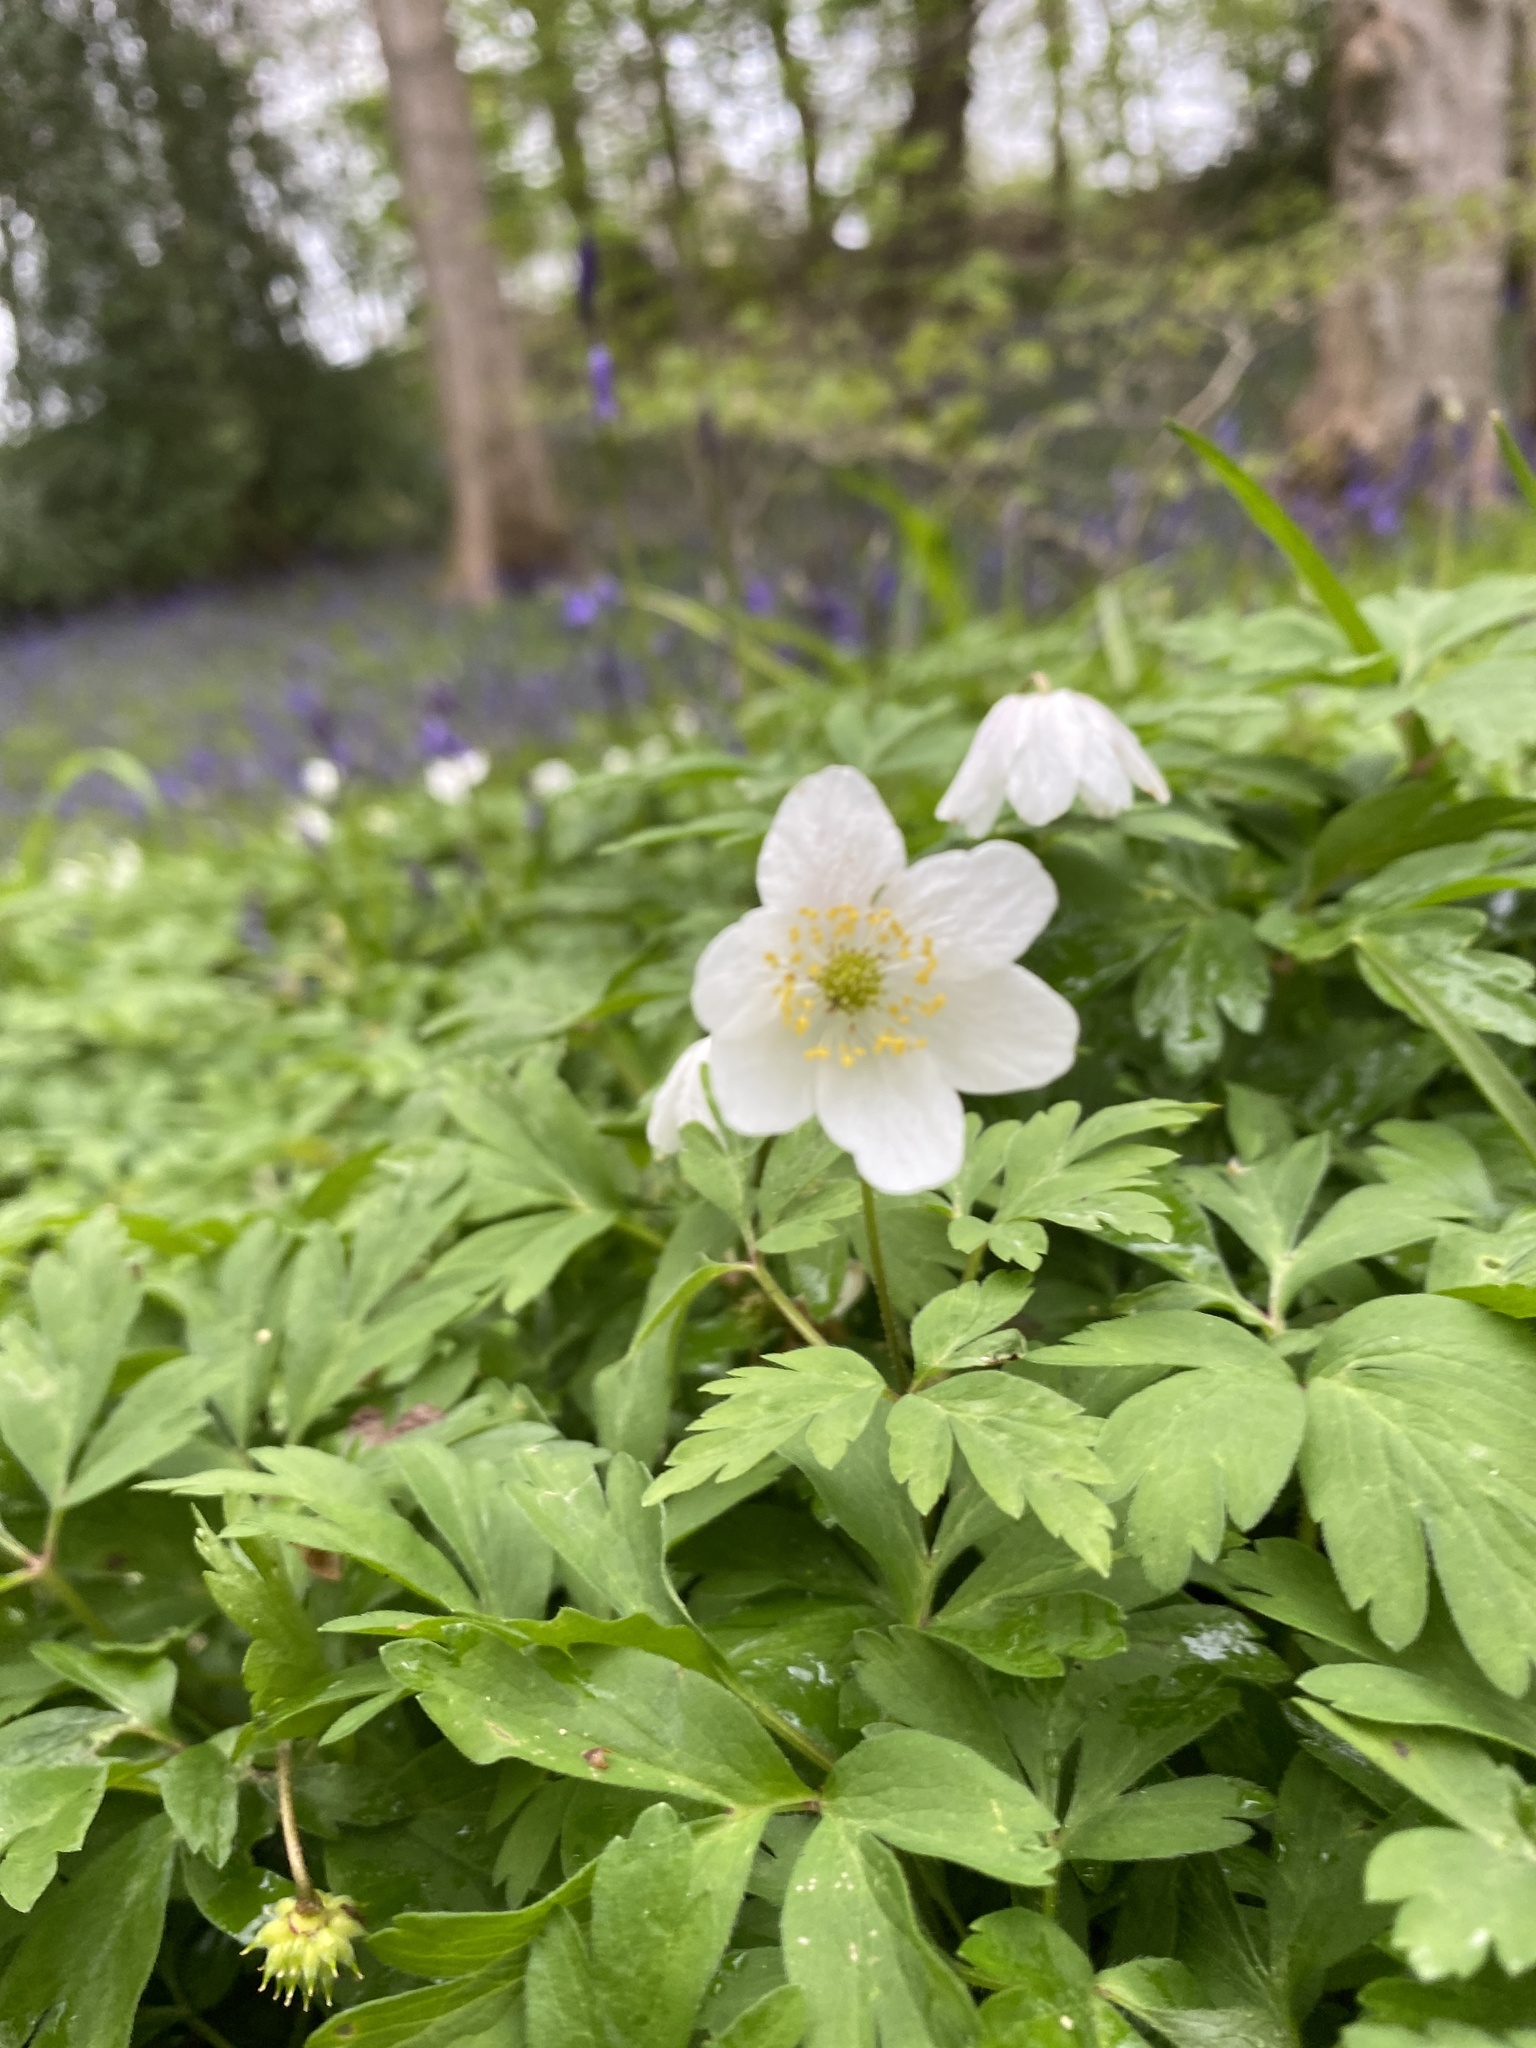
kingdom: Plantae
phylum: Tracheophyta
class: Magnoliopsida
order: Ranunculales
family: Ranunculaceae
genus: Anemone
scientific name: Anemone nemorosa
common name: Wood anemone
